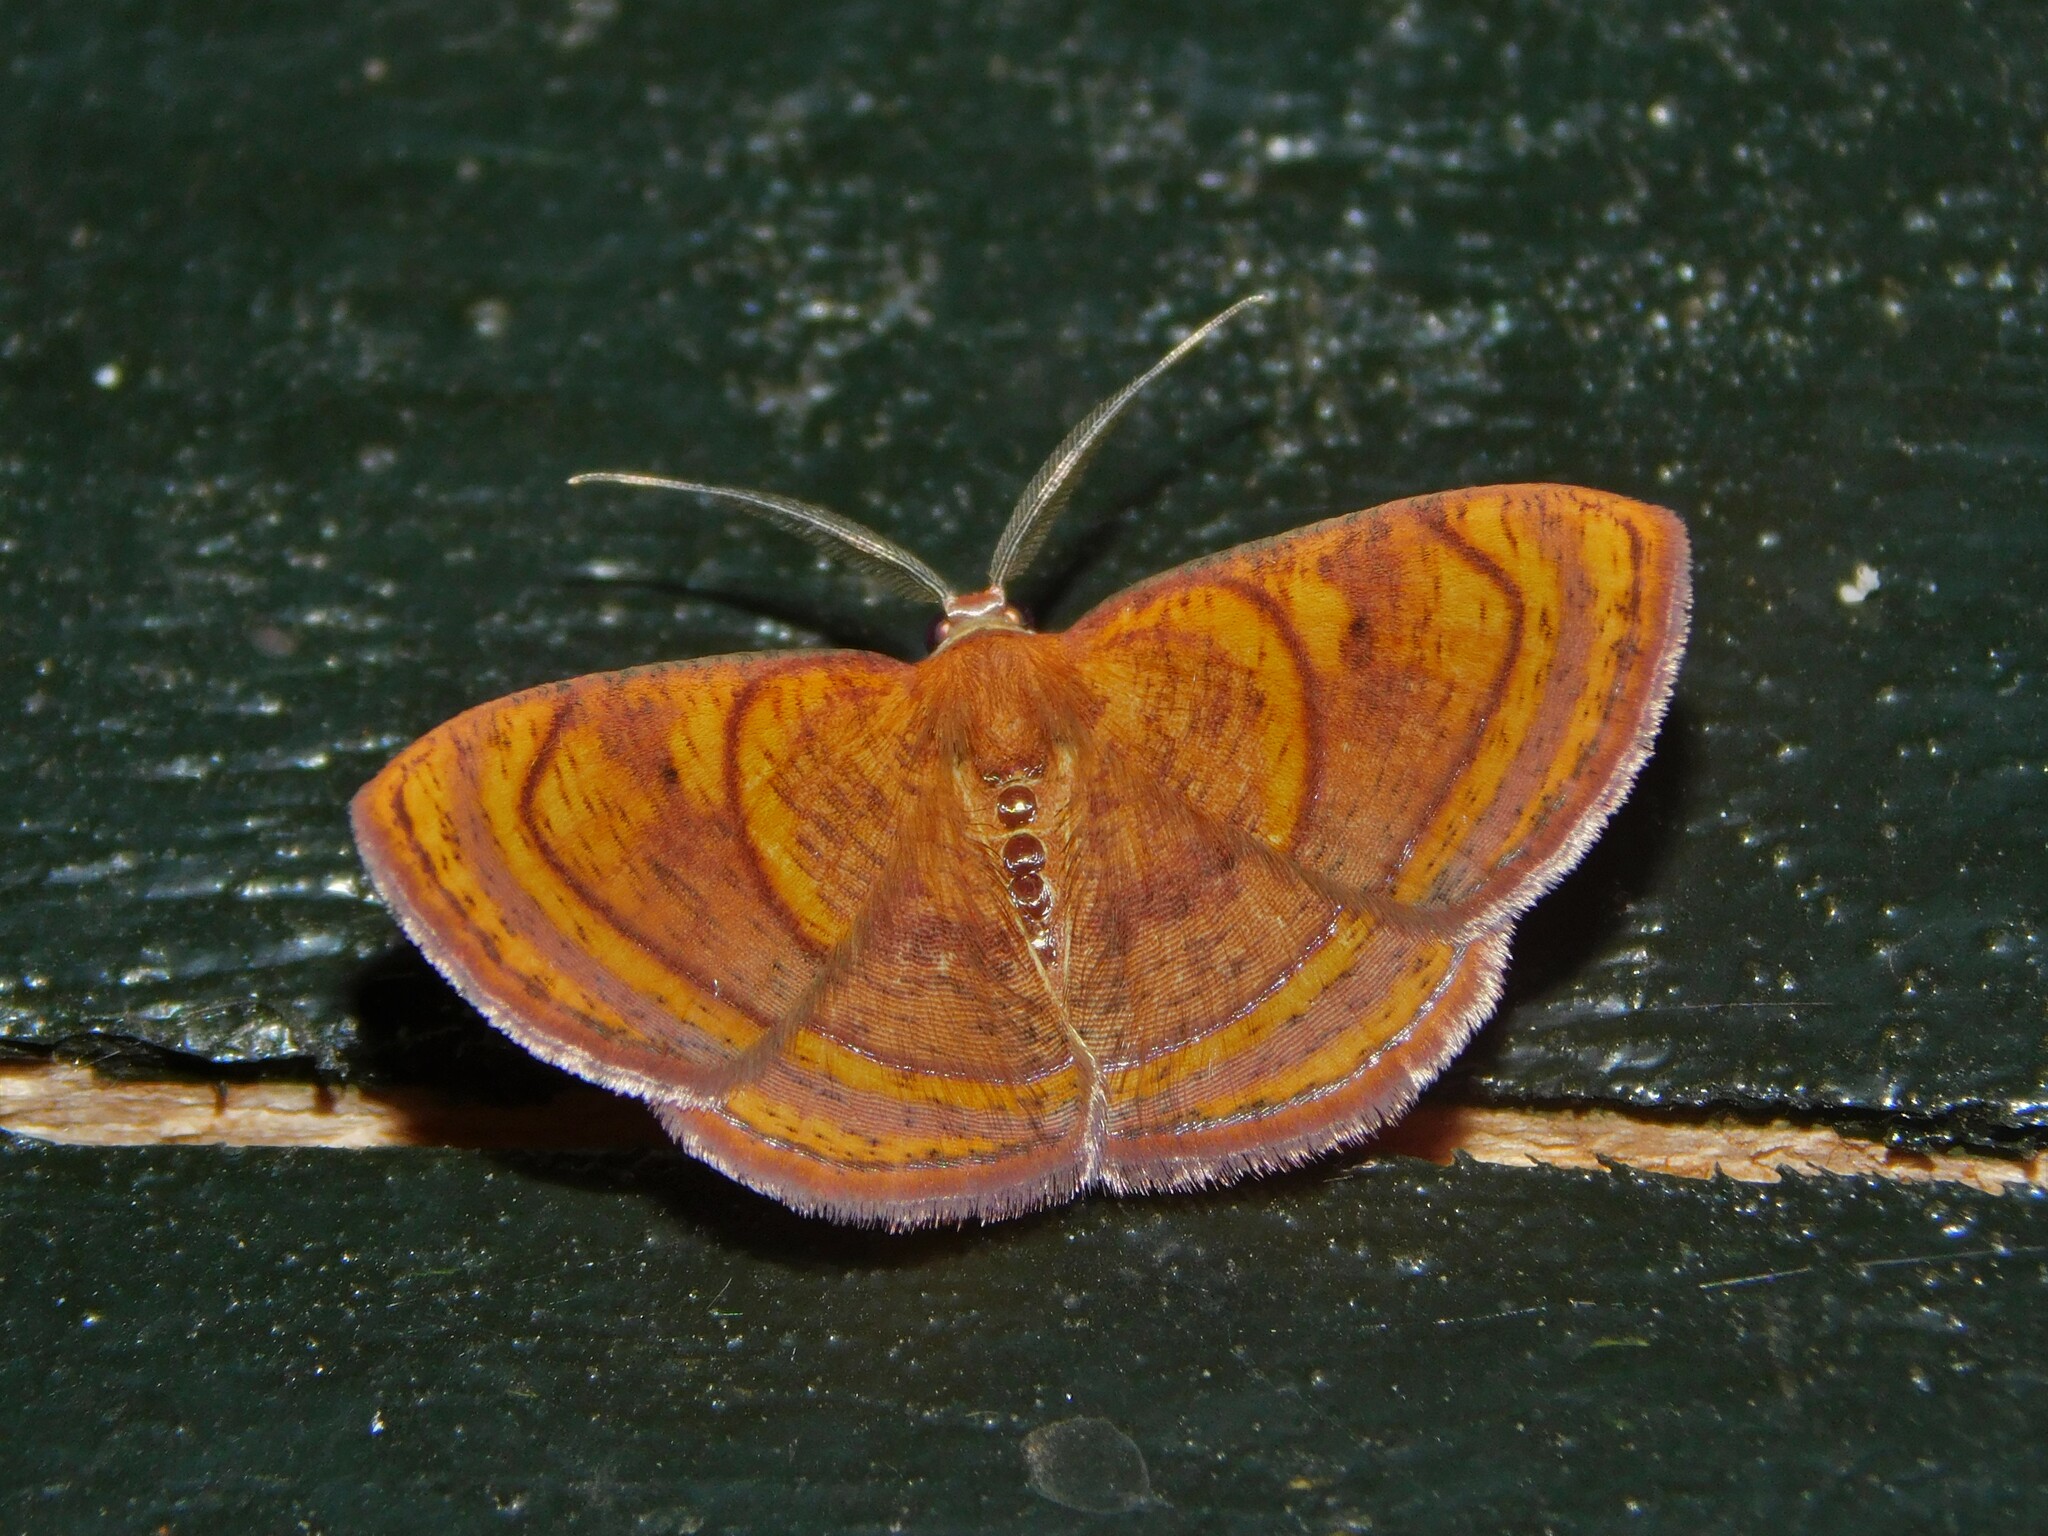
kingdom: Animalia
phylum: Arthropoda
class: Insecta
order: Lepidoptera
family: Geometridae
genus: Oaracta
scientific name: Oaracta maculata
